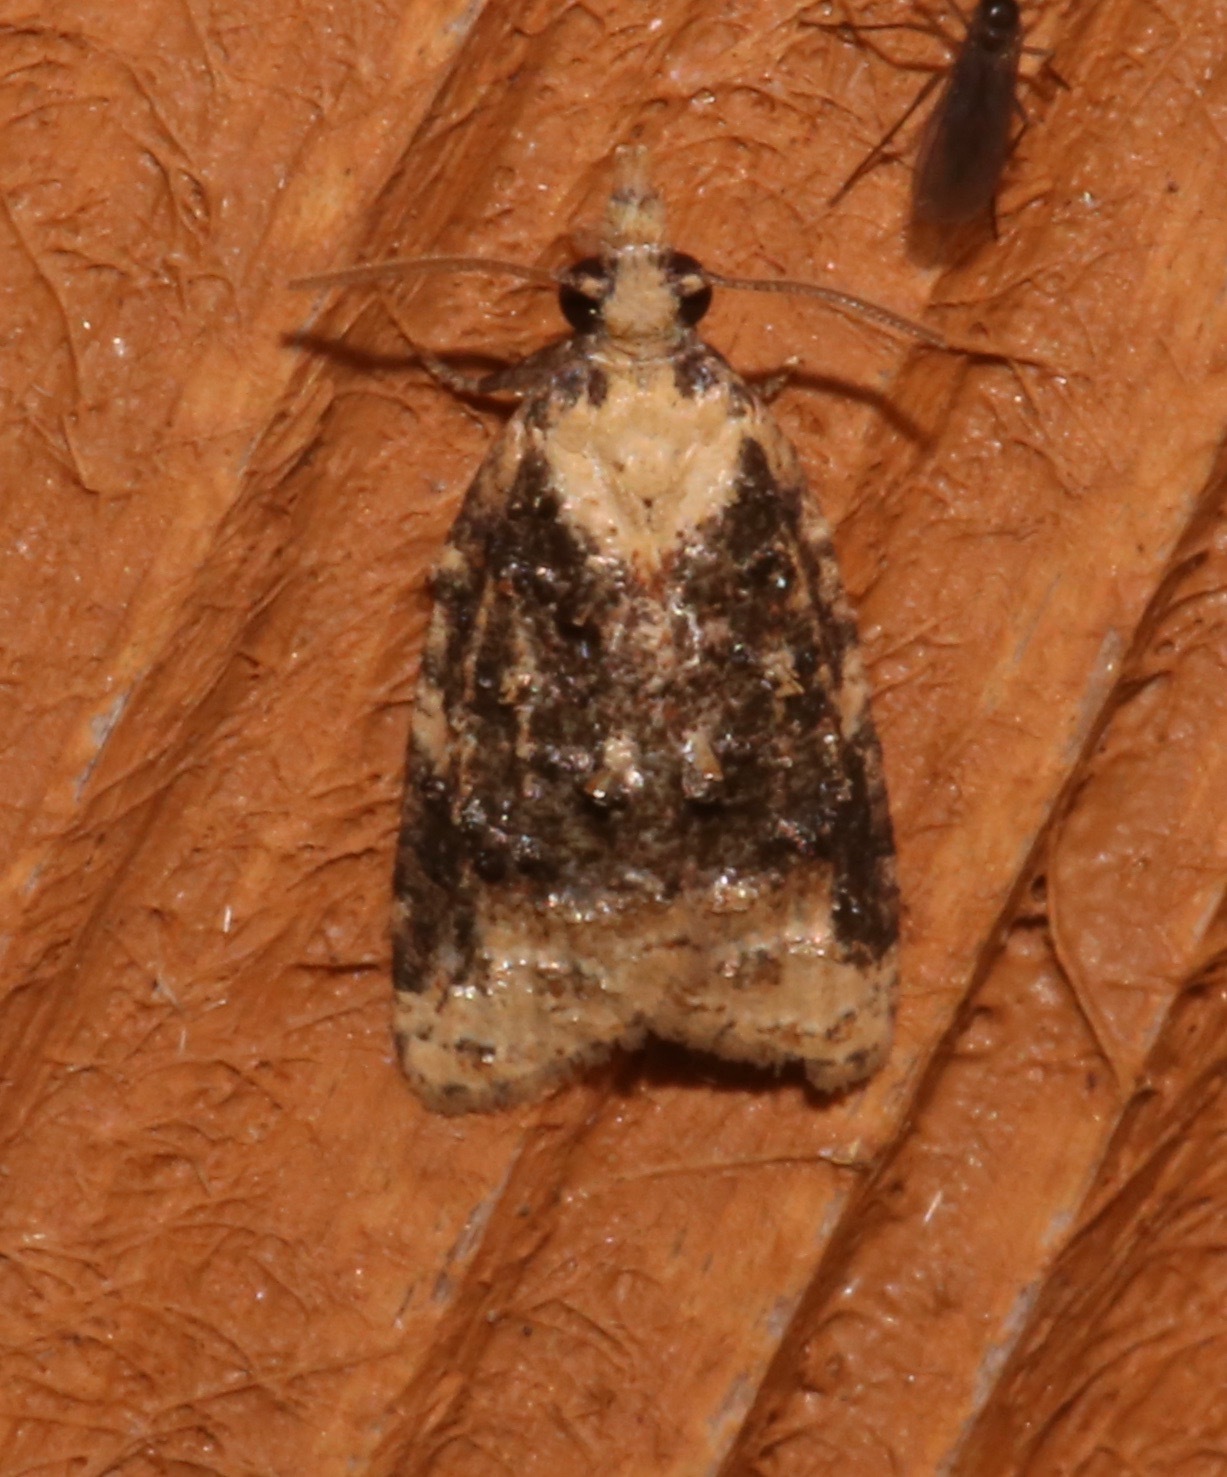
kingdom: Animalia
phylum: Arthropoda
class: Insecta
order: Lepidoptera
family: Tortricidae
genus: Platynota
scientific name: Platynota exasperatana
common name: Exasperating platynota moth
